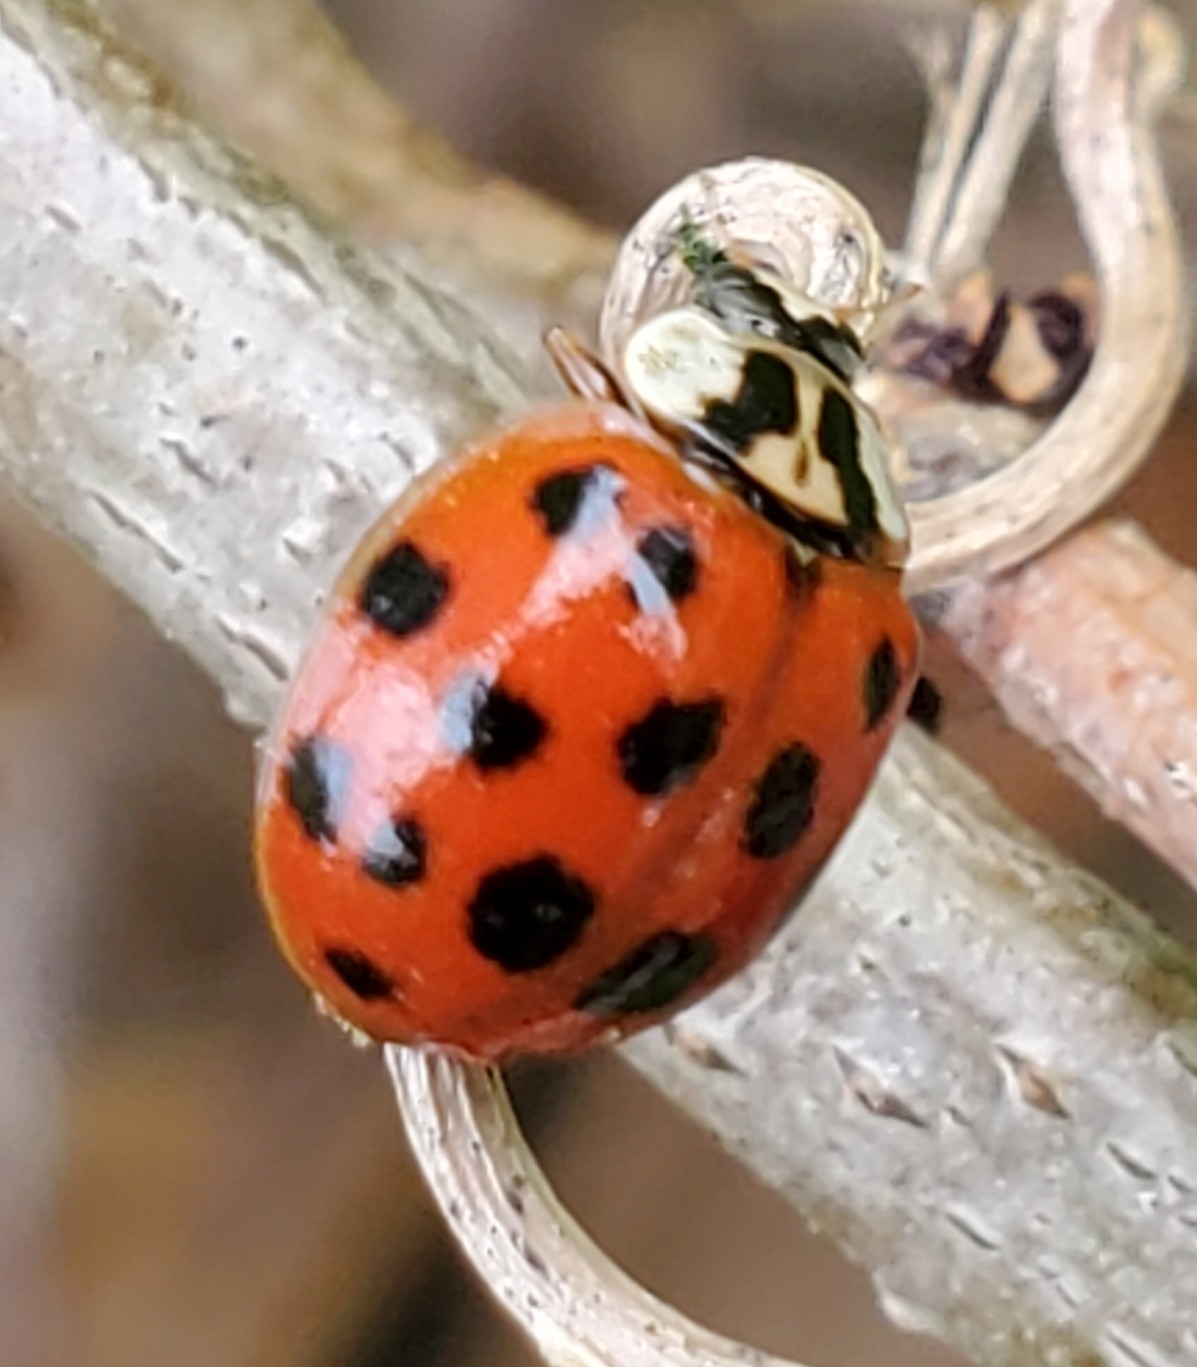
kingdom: Animalia
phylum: Arthropoda
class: Insecta
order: Coleoptera
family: Coccinellidae
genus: Harmonia
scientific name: Harmonia axyridis
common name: Harlequin ladybird
